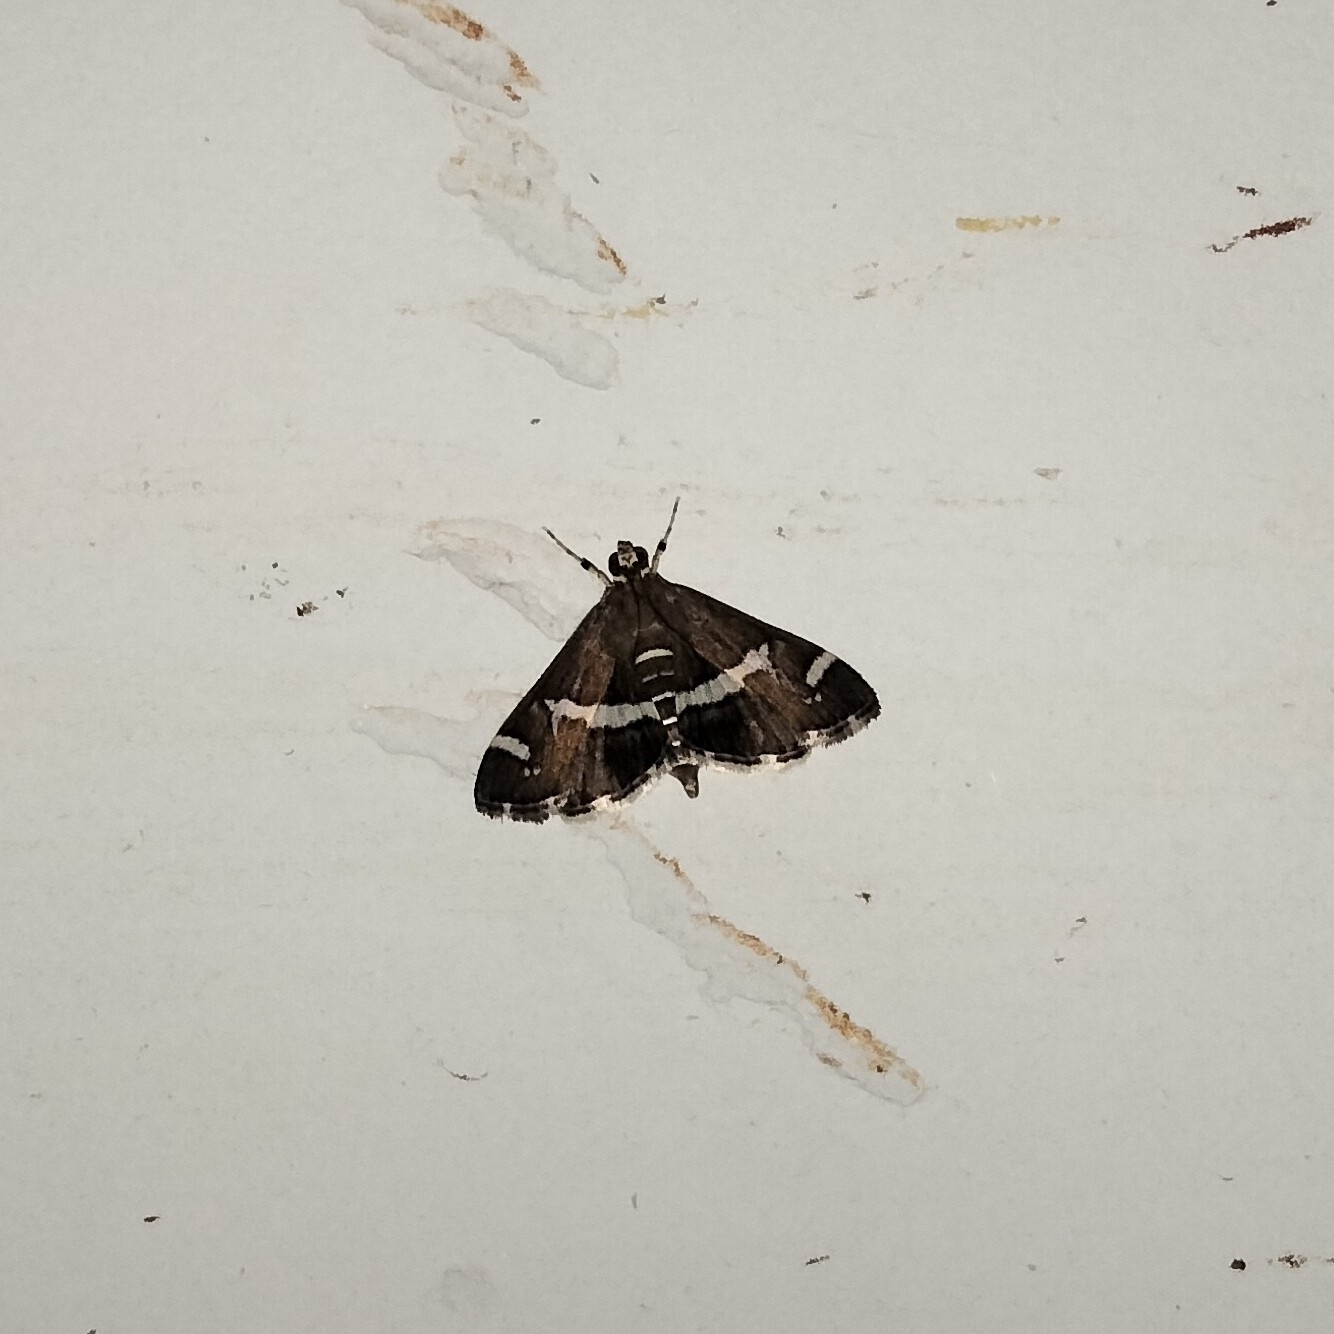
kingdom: Animalia
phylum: Arthropoda
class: Insecta
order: Lepidoptera
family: Crambidae
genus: Spoladea
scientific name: Spoladea recurvalis
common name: Beet webworm moth
